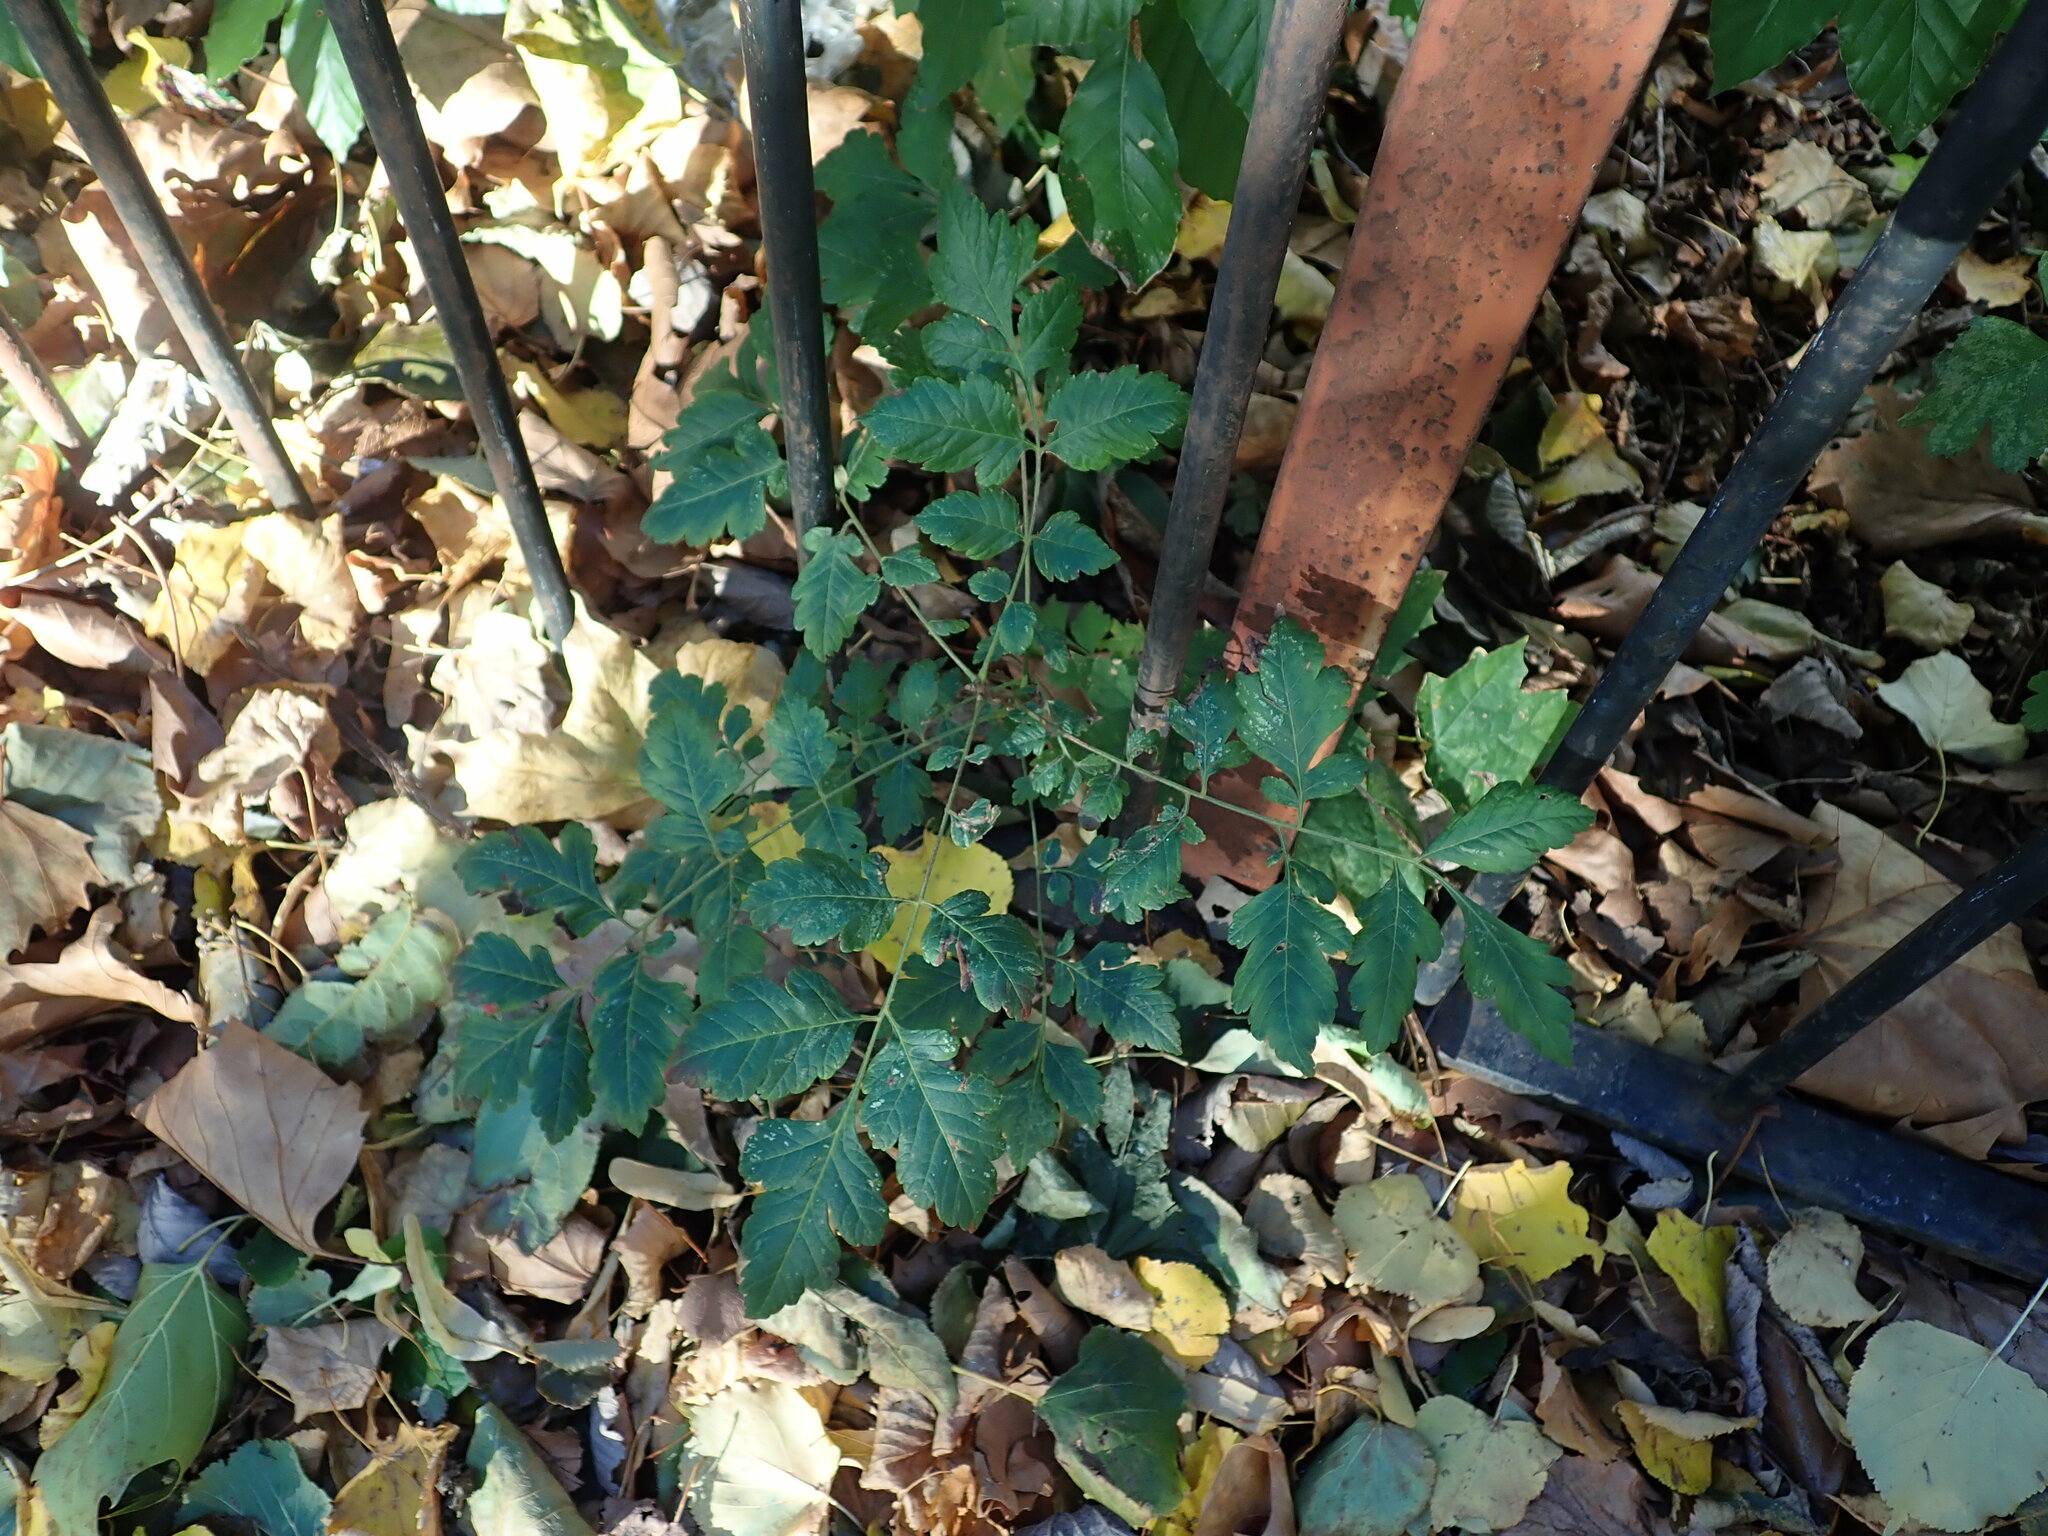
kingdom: Plantae
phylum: Tracheophyta
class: Magnoliopsida
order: Sapindales
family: Sapindaceae
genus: Koelreuteria
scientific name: Koelreuteria paniculata
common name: Pride-of-india
